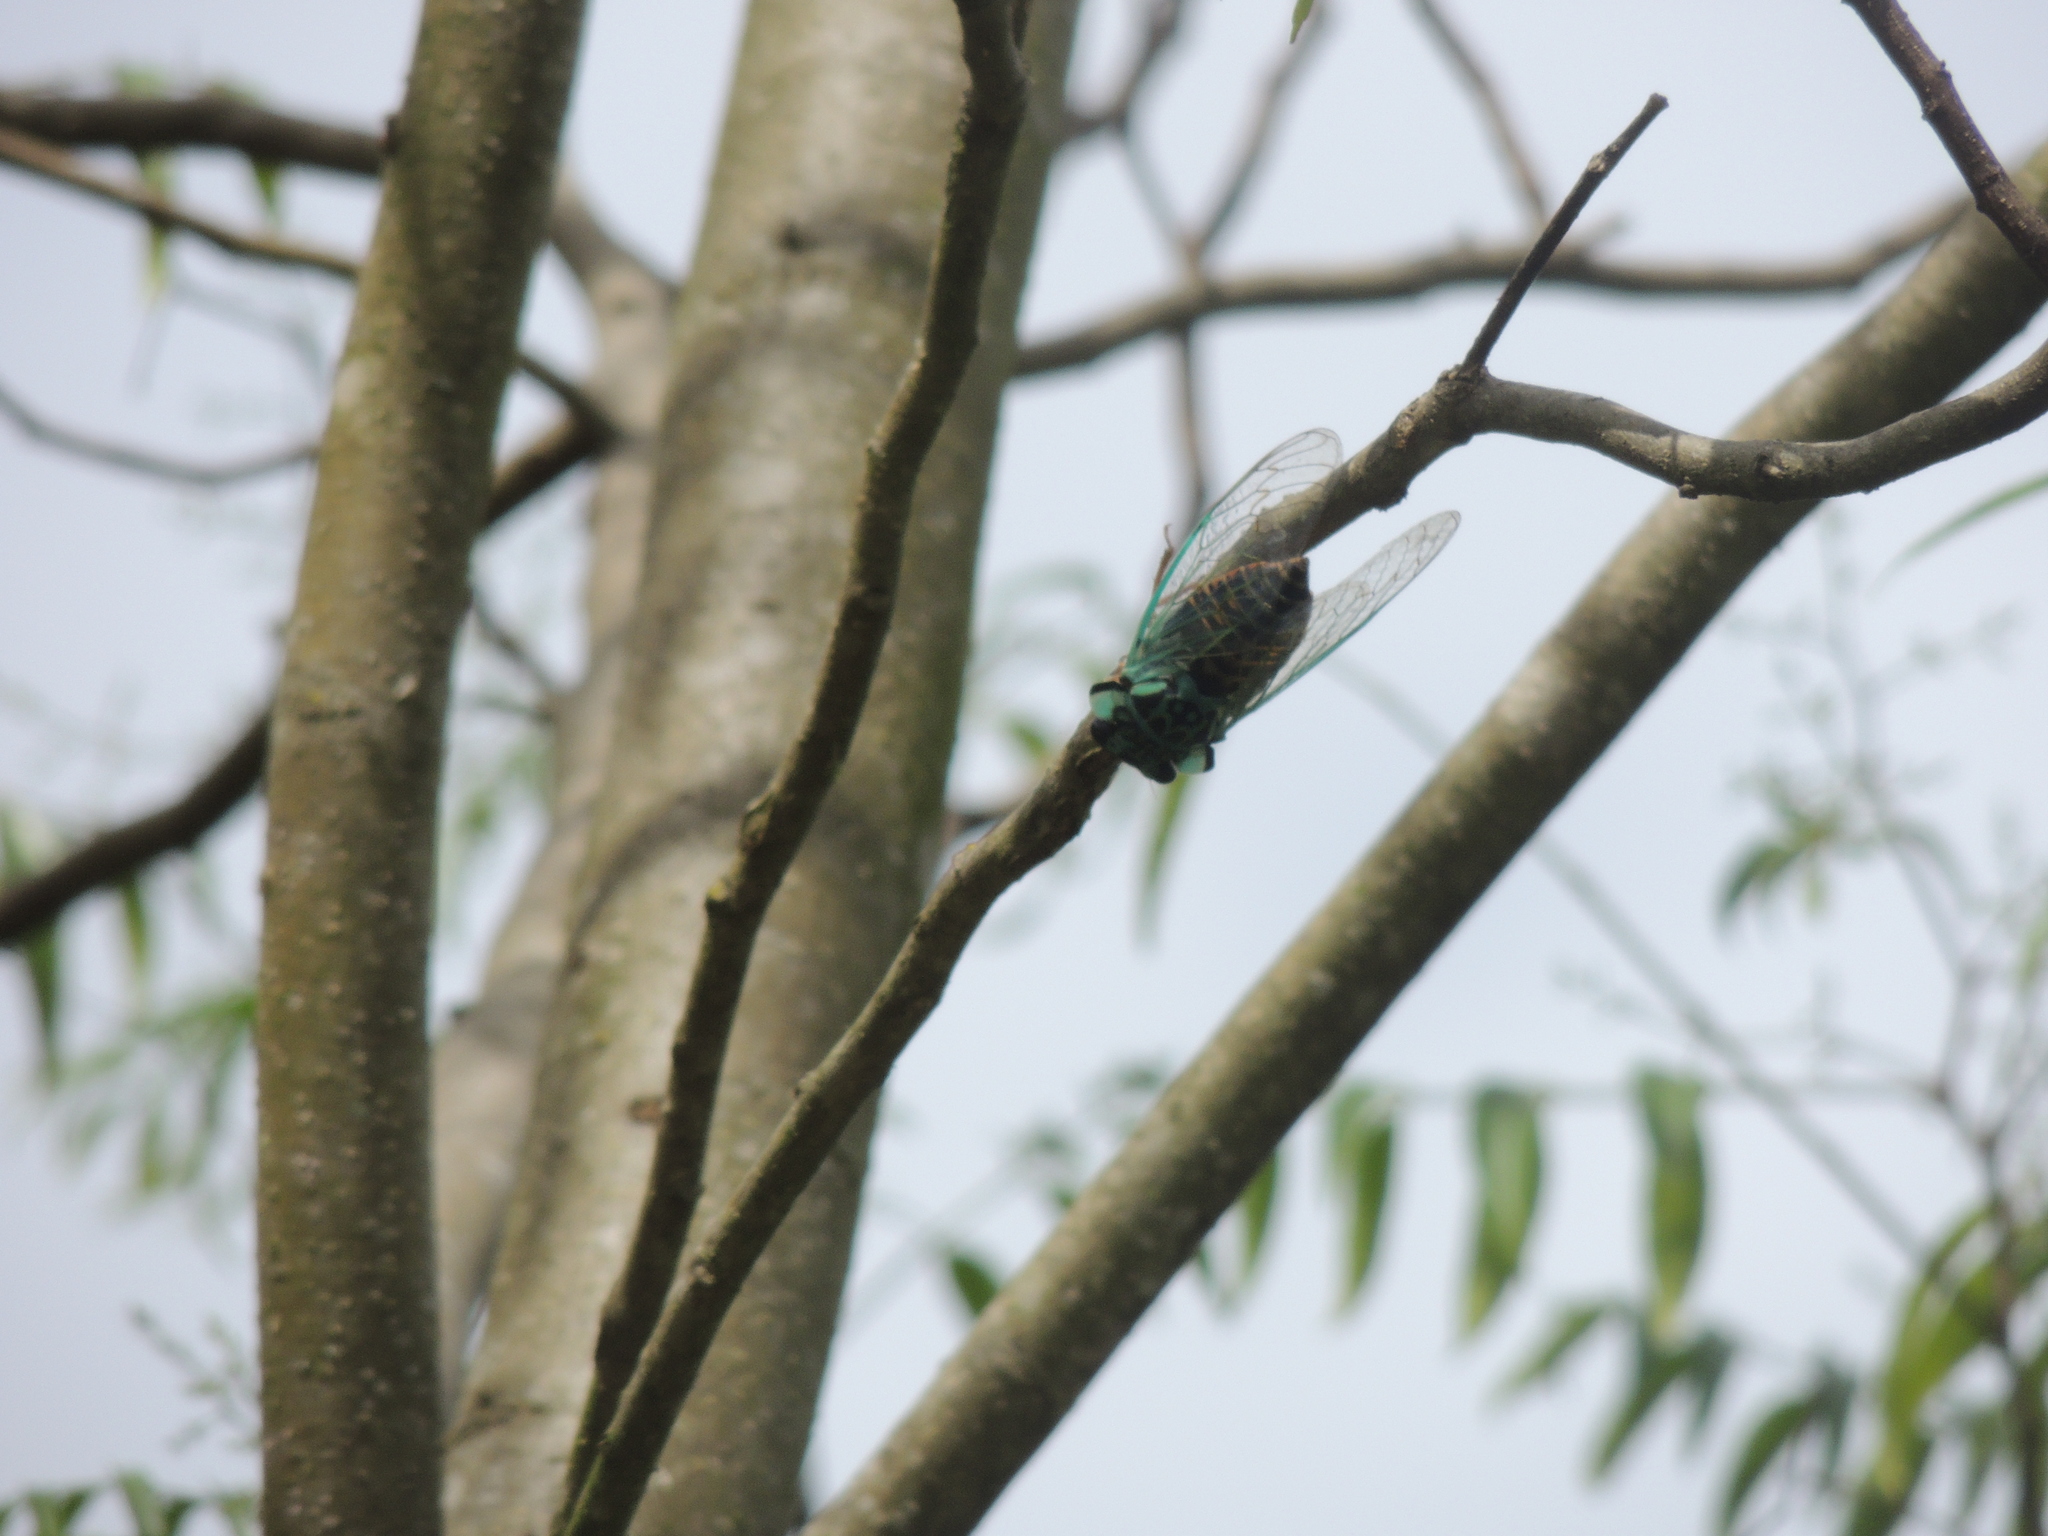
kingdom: Animalia
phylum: Arthropoda
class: Insecta
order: Hemiptera
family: Cicadidae
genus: Adusella
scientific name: Adusella insignifera
